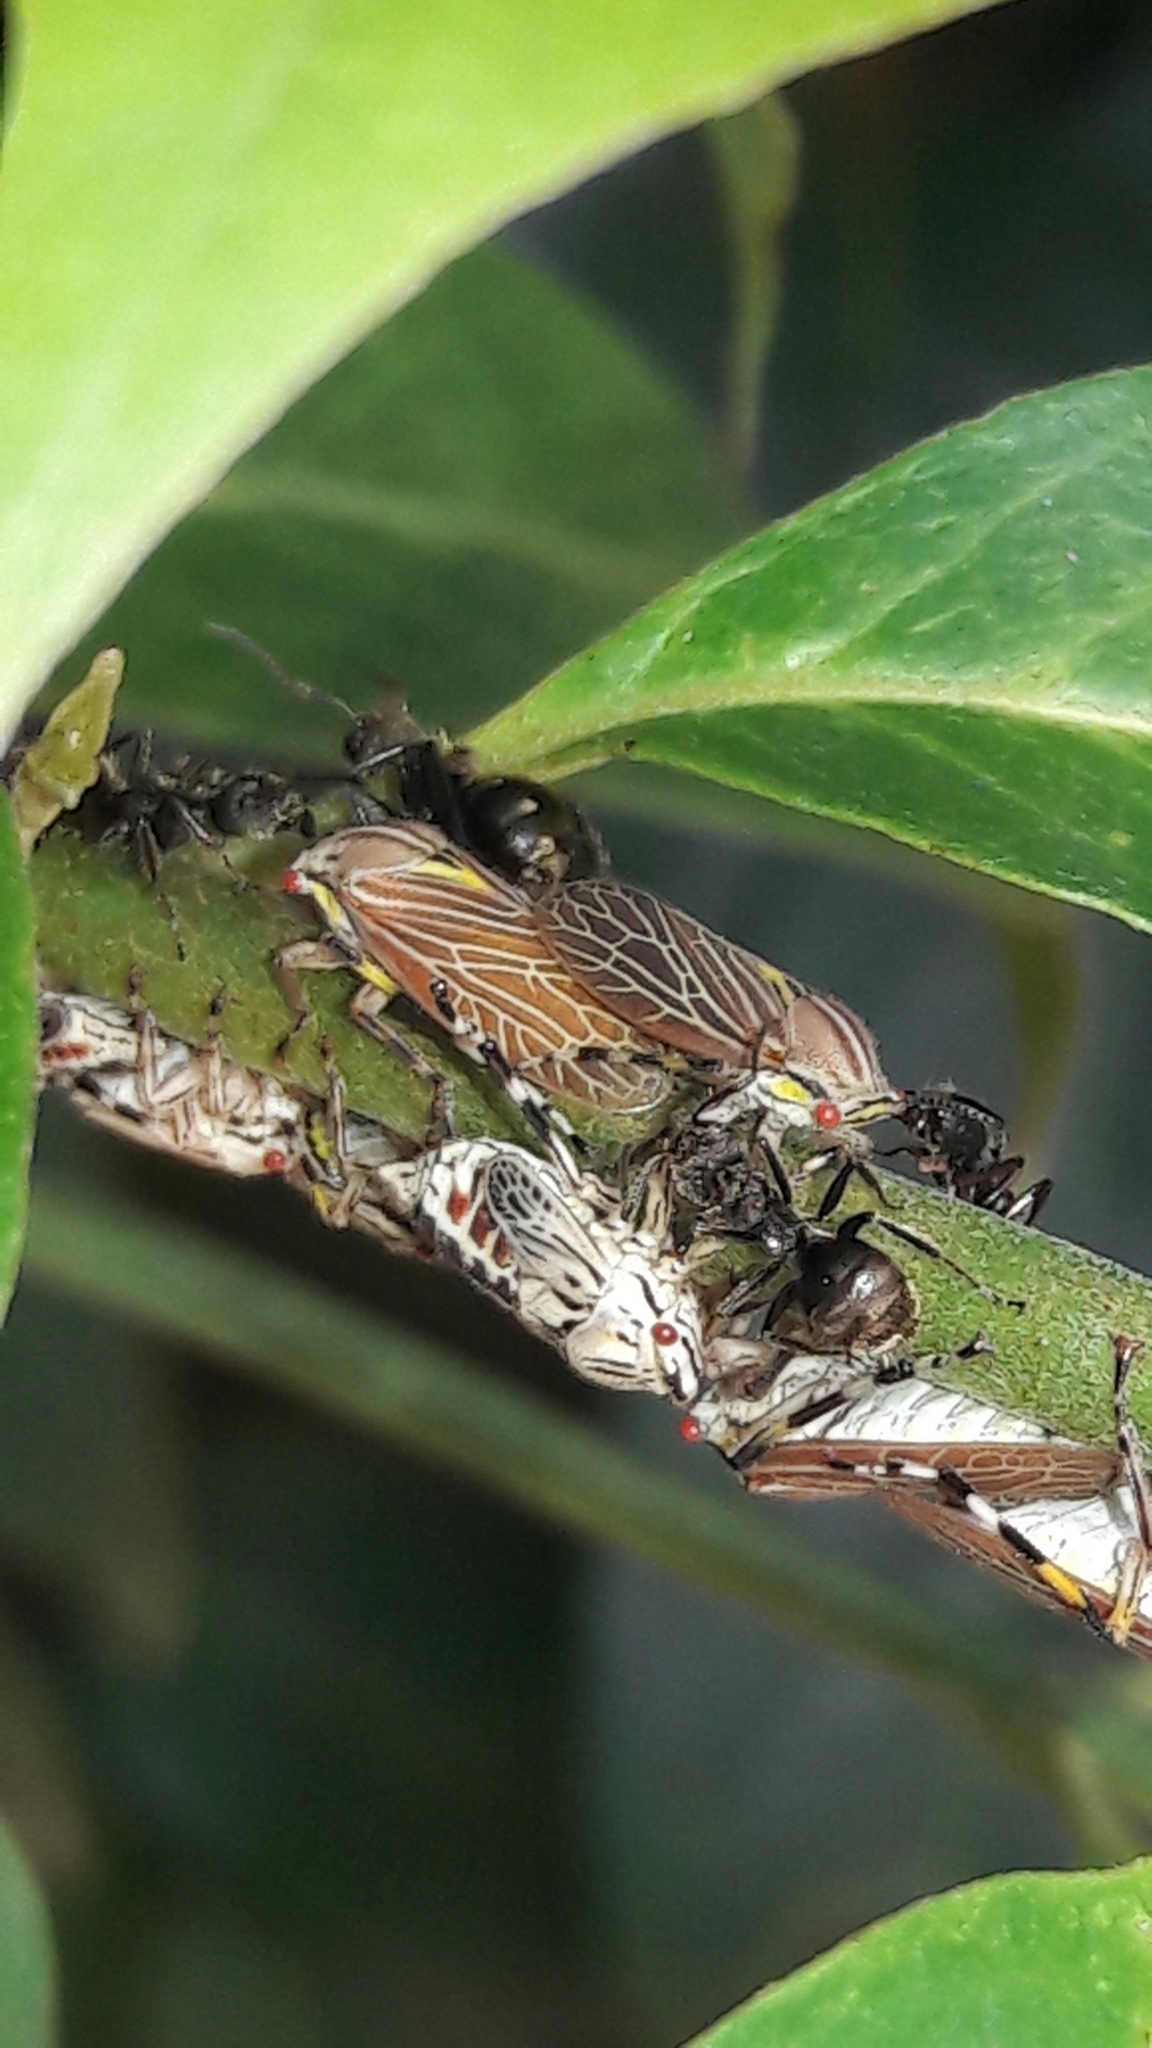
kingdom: Animalia
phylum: Arthropoda
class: Insecta
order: Hemiptera
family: Aetalionidae
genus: Aetalion
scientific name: Aetalion reticulatum
